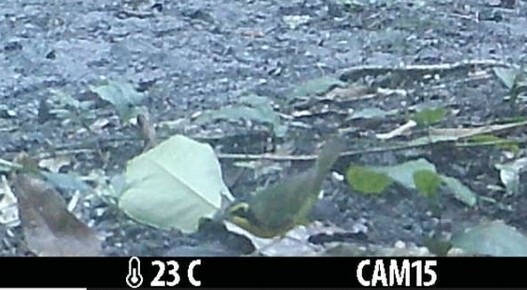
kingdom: Animalia
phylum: Chordata
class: Aves
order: Passeriformes
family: Parulidae
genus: Geothlypis
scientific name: Geothlypis formosa
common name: Kentucky warbler
